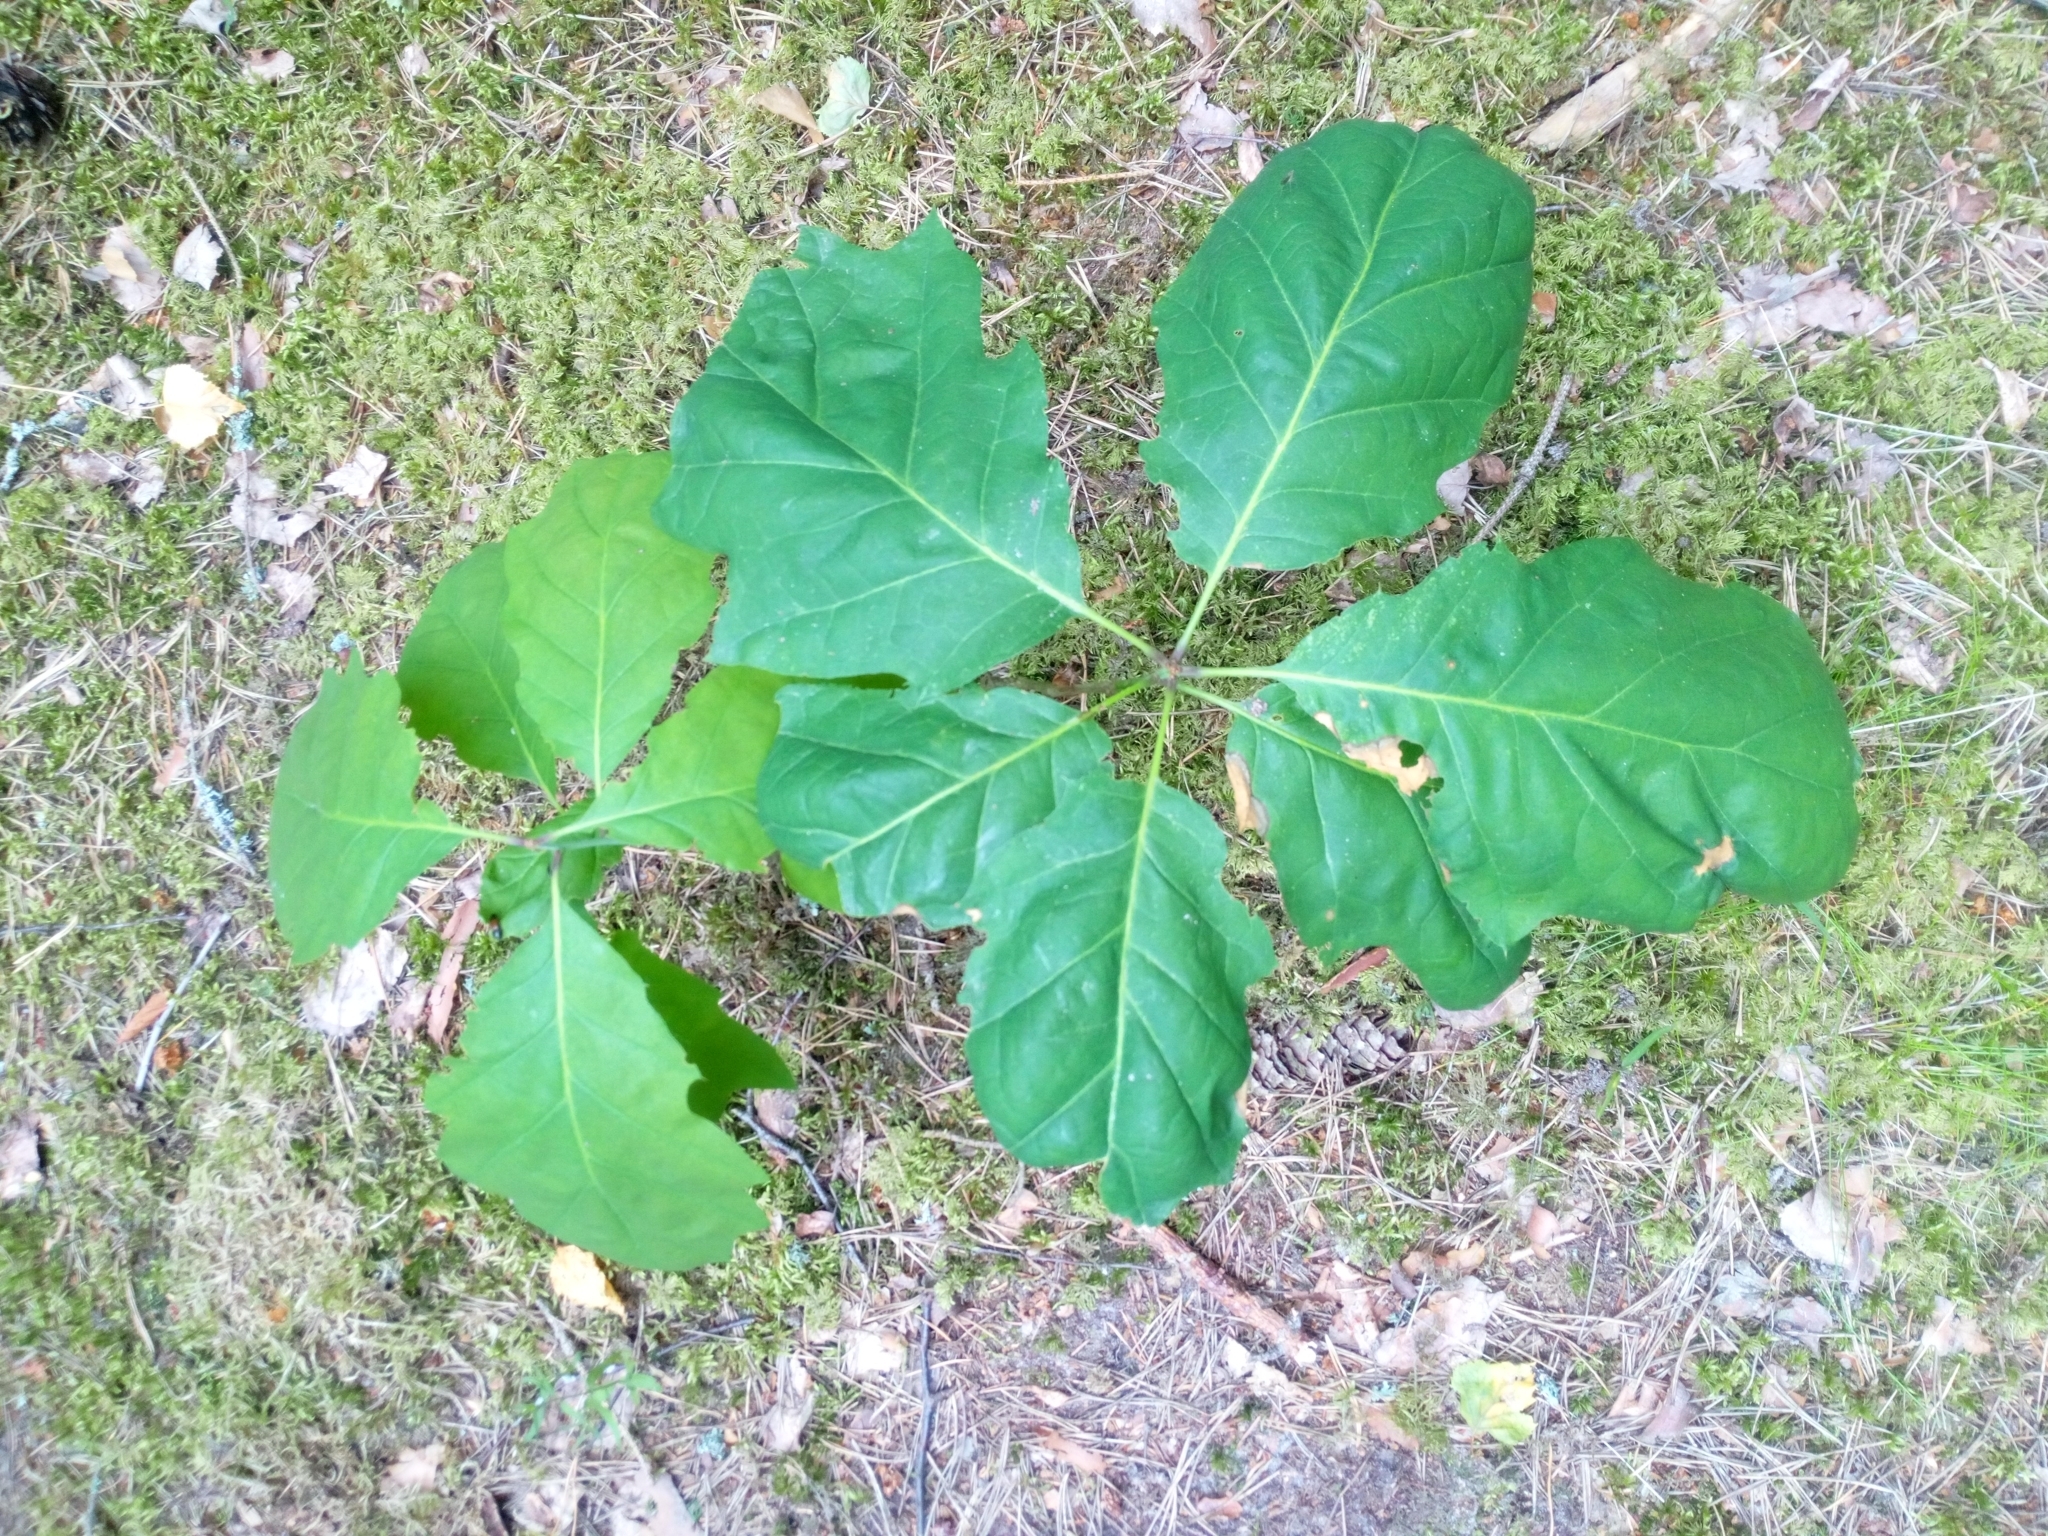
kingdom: Plantae
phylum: Tracheophyta
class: Magnoliopsida
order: Fagales
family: Fagaceae
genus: Quercus
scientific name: Quercus rubra
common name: Red oak
